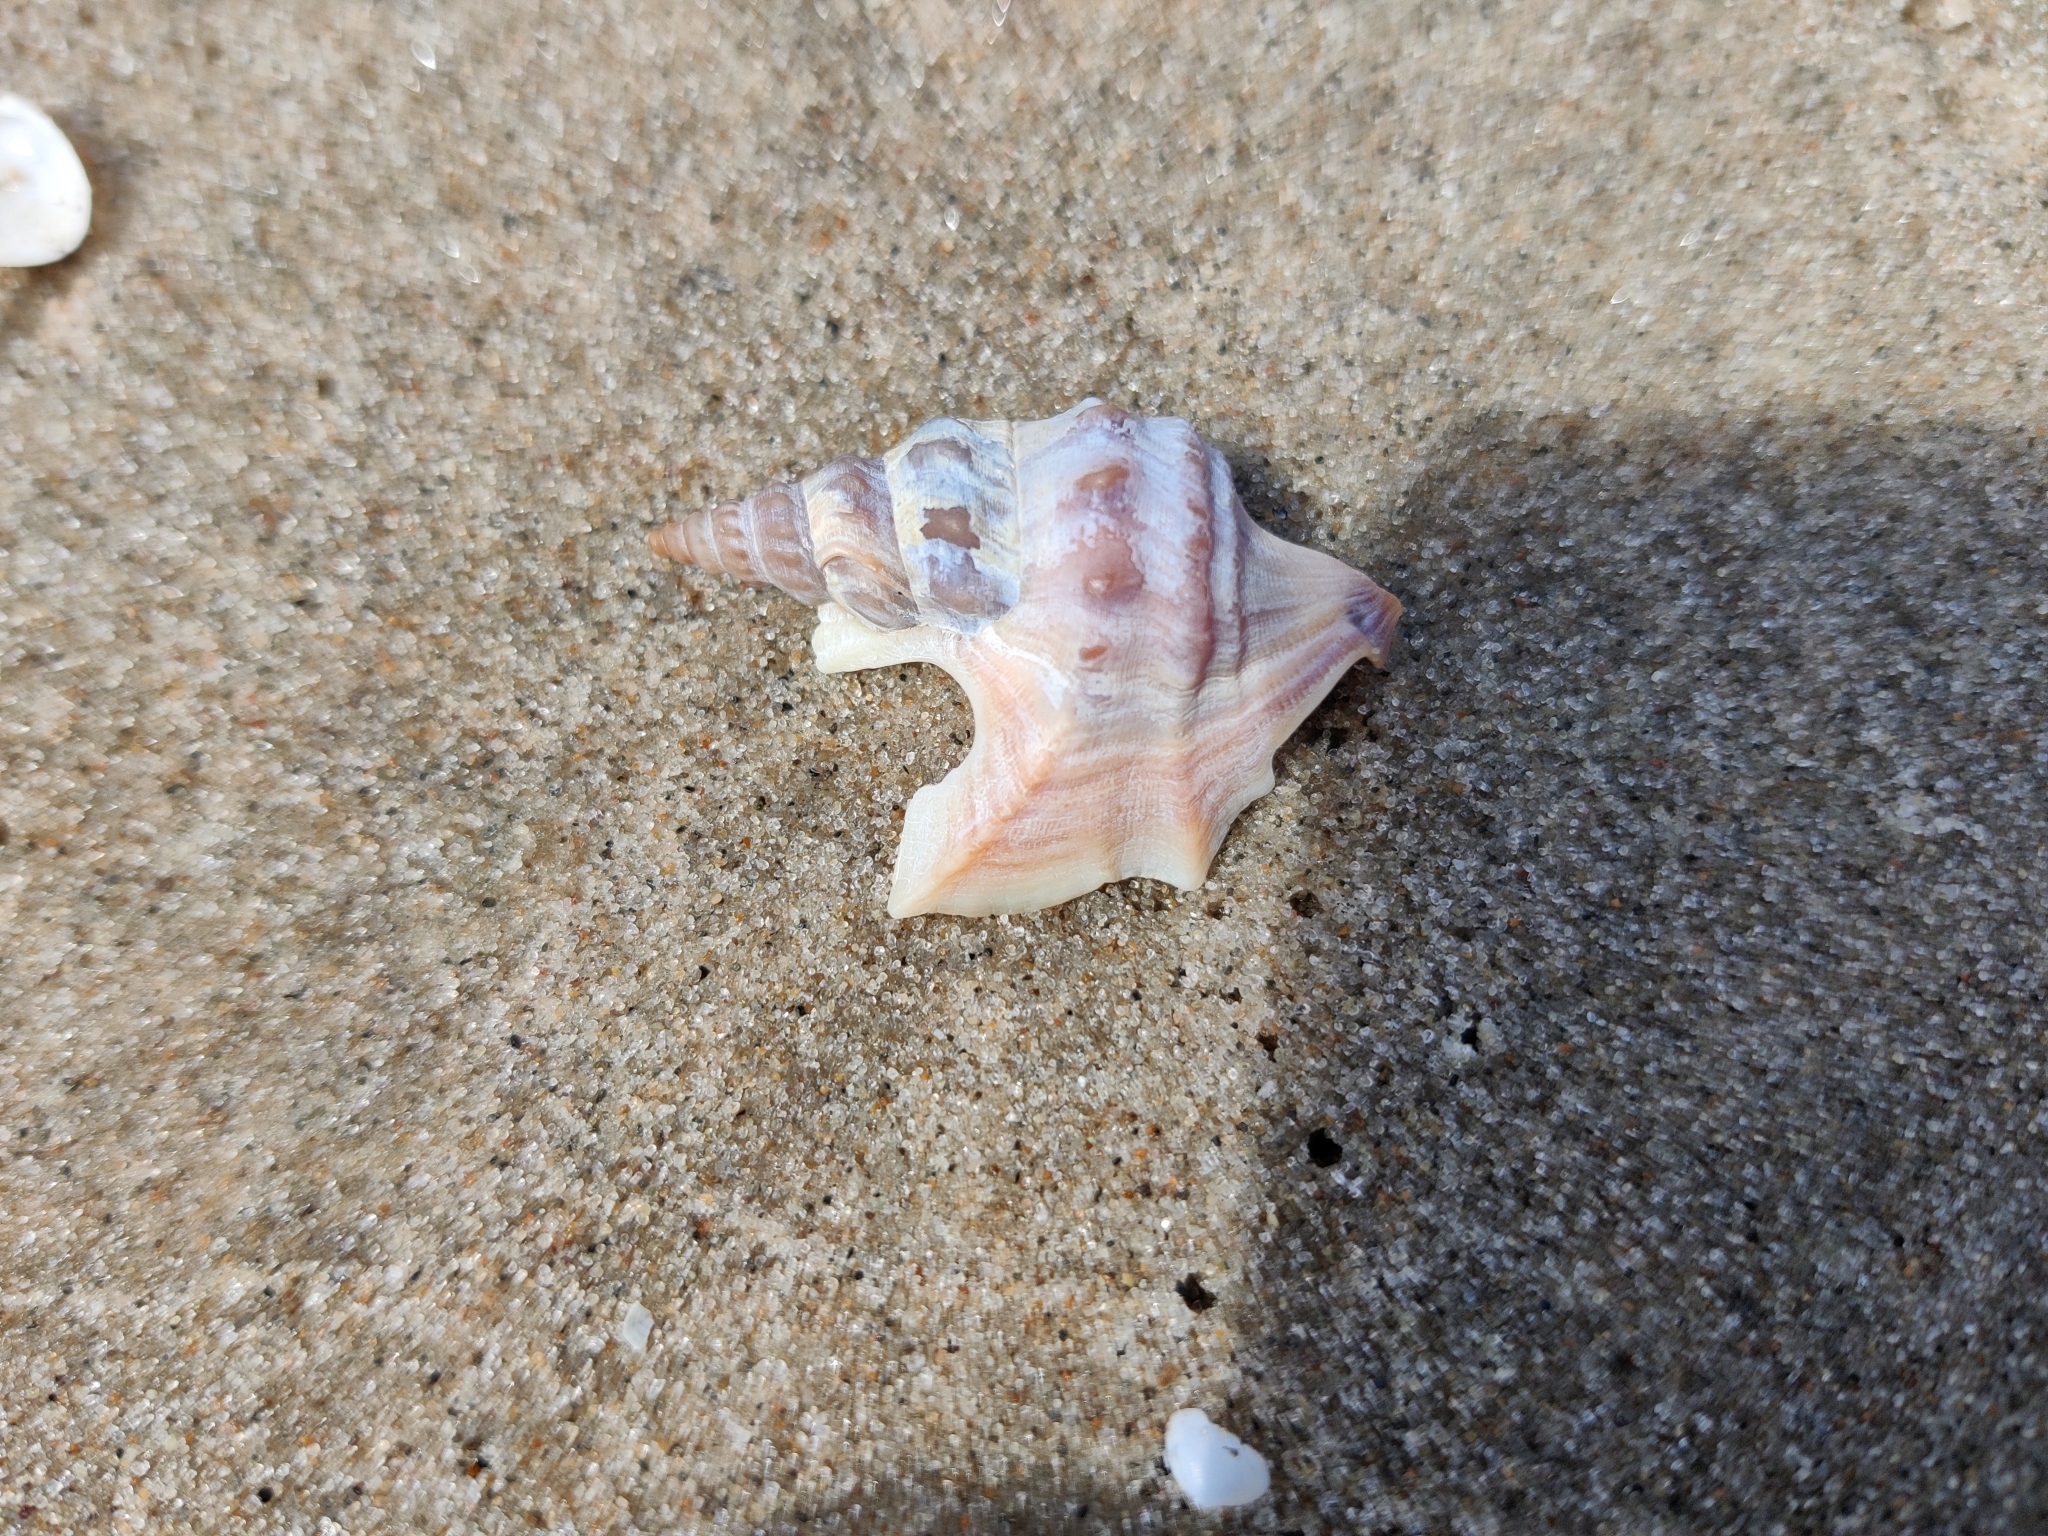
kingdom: Animalia
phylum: Mollusca
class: Gastropoda
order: Littorinimorpha
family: Aporrhaidae
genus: Aporrhais
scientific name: Aporrhais pespelecani
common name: Common pelican’s foot
